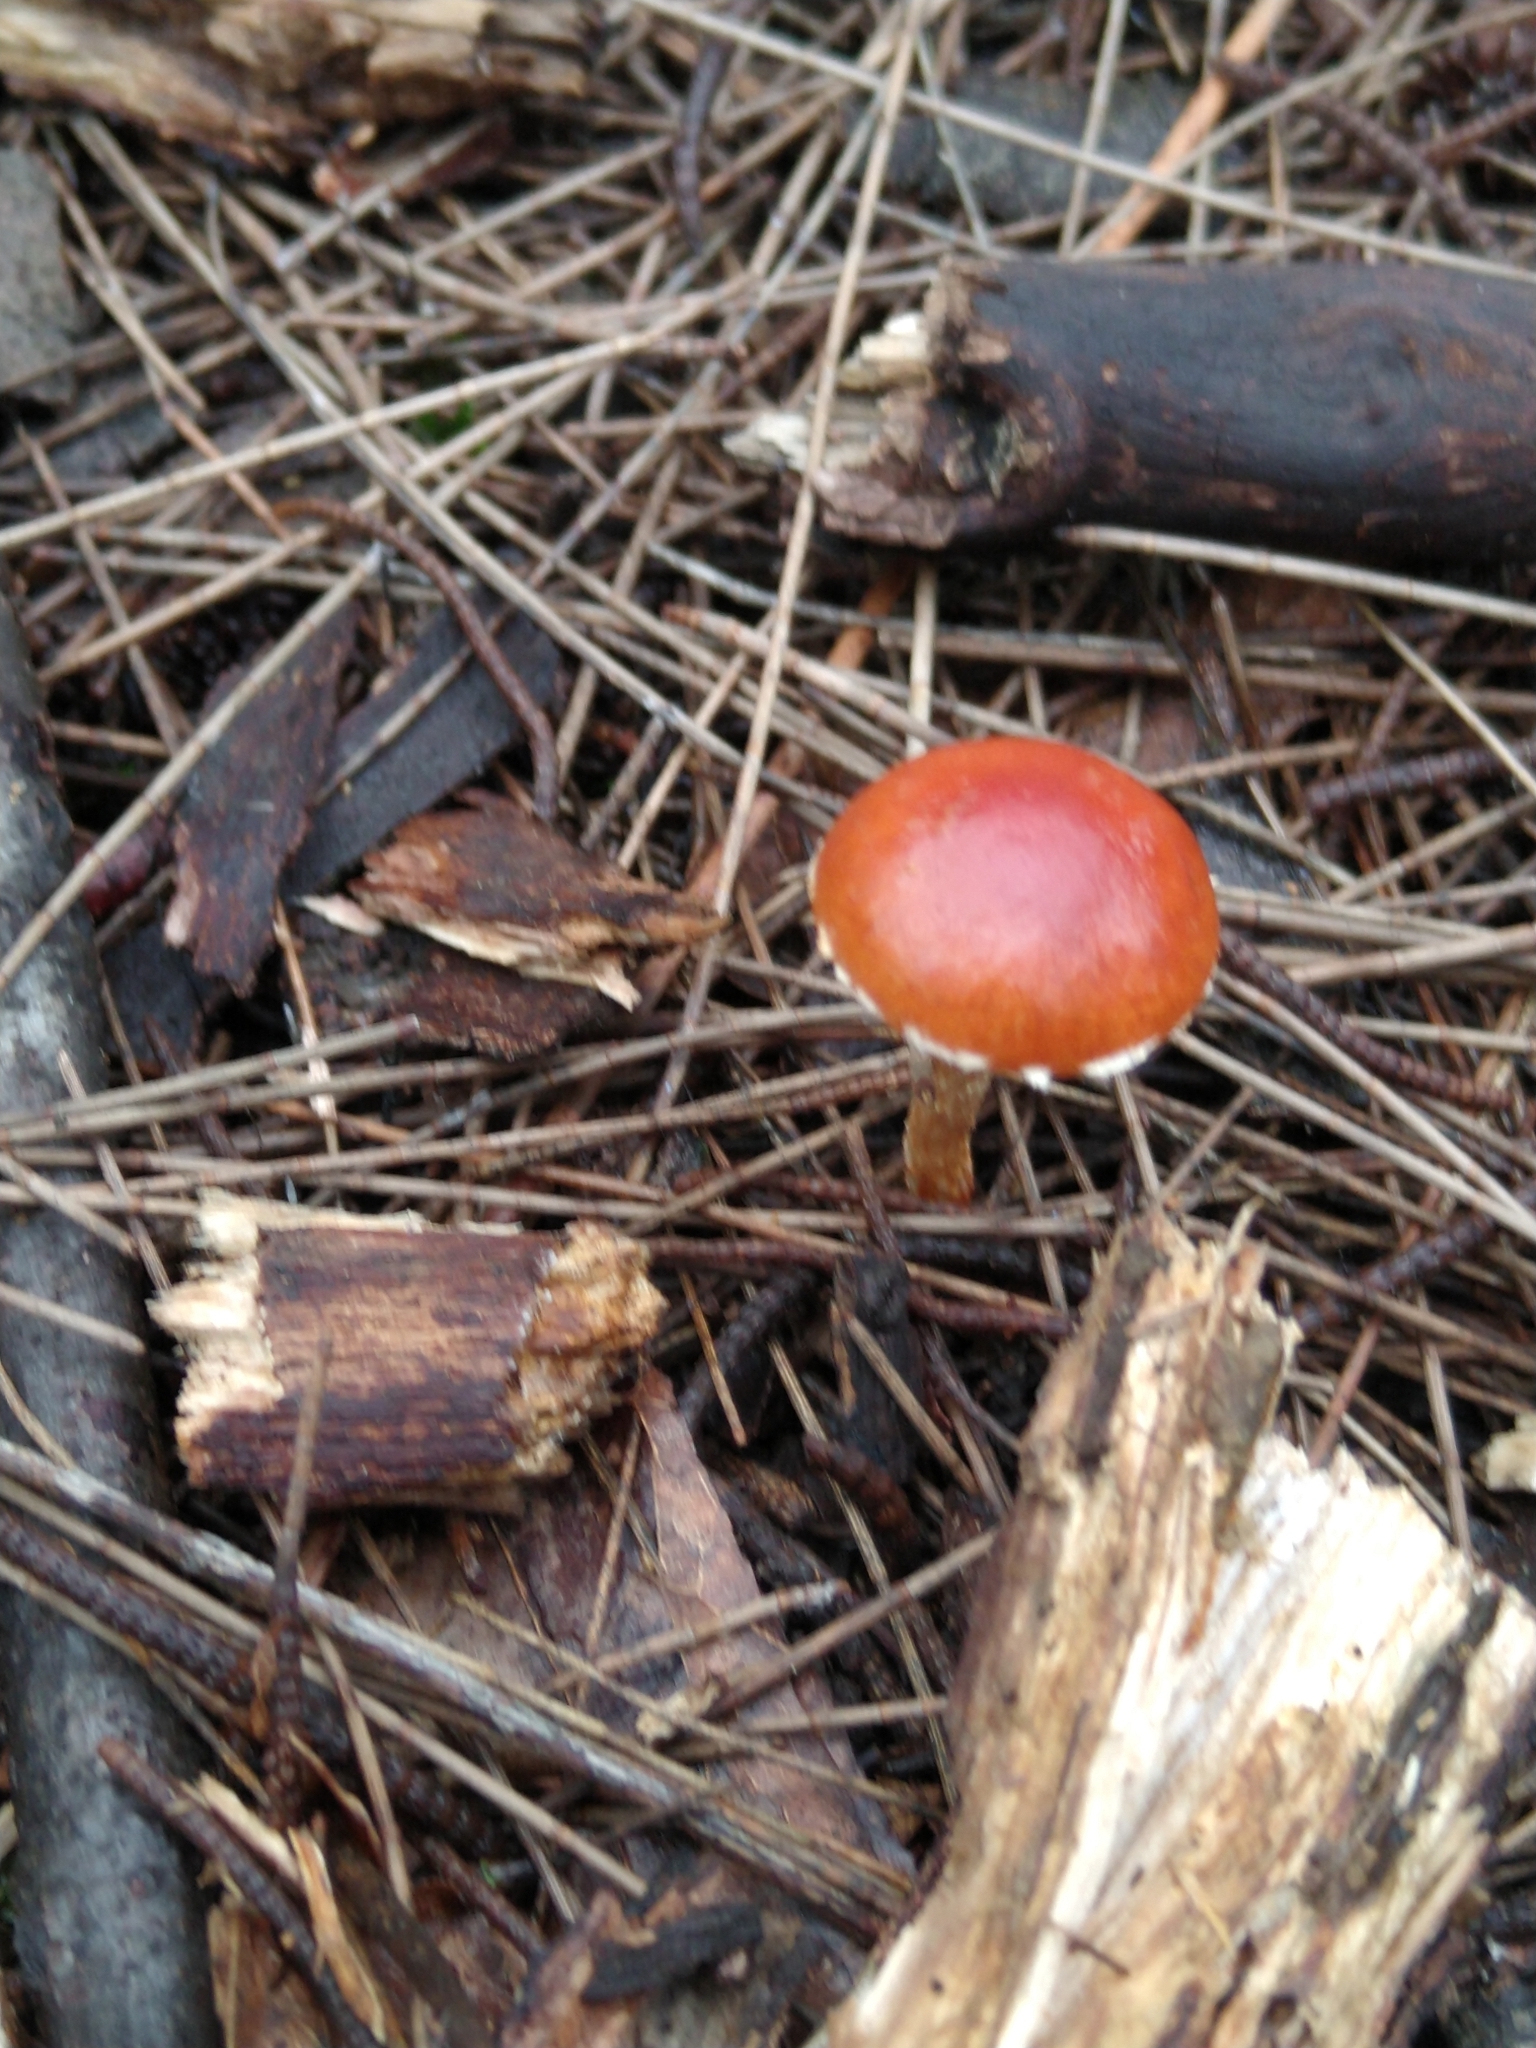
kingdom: Fungi
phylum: Basidiomycota
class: Agaricomycetes
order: Agaricales
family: Strophariaceae
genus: Leratiomyces
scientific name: Leratiomyces ceres
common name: Redlead roundhead
